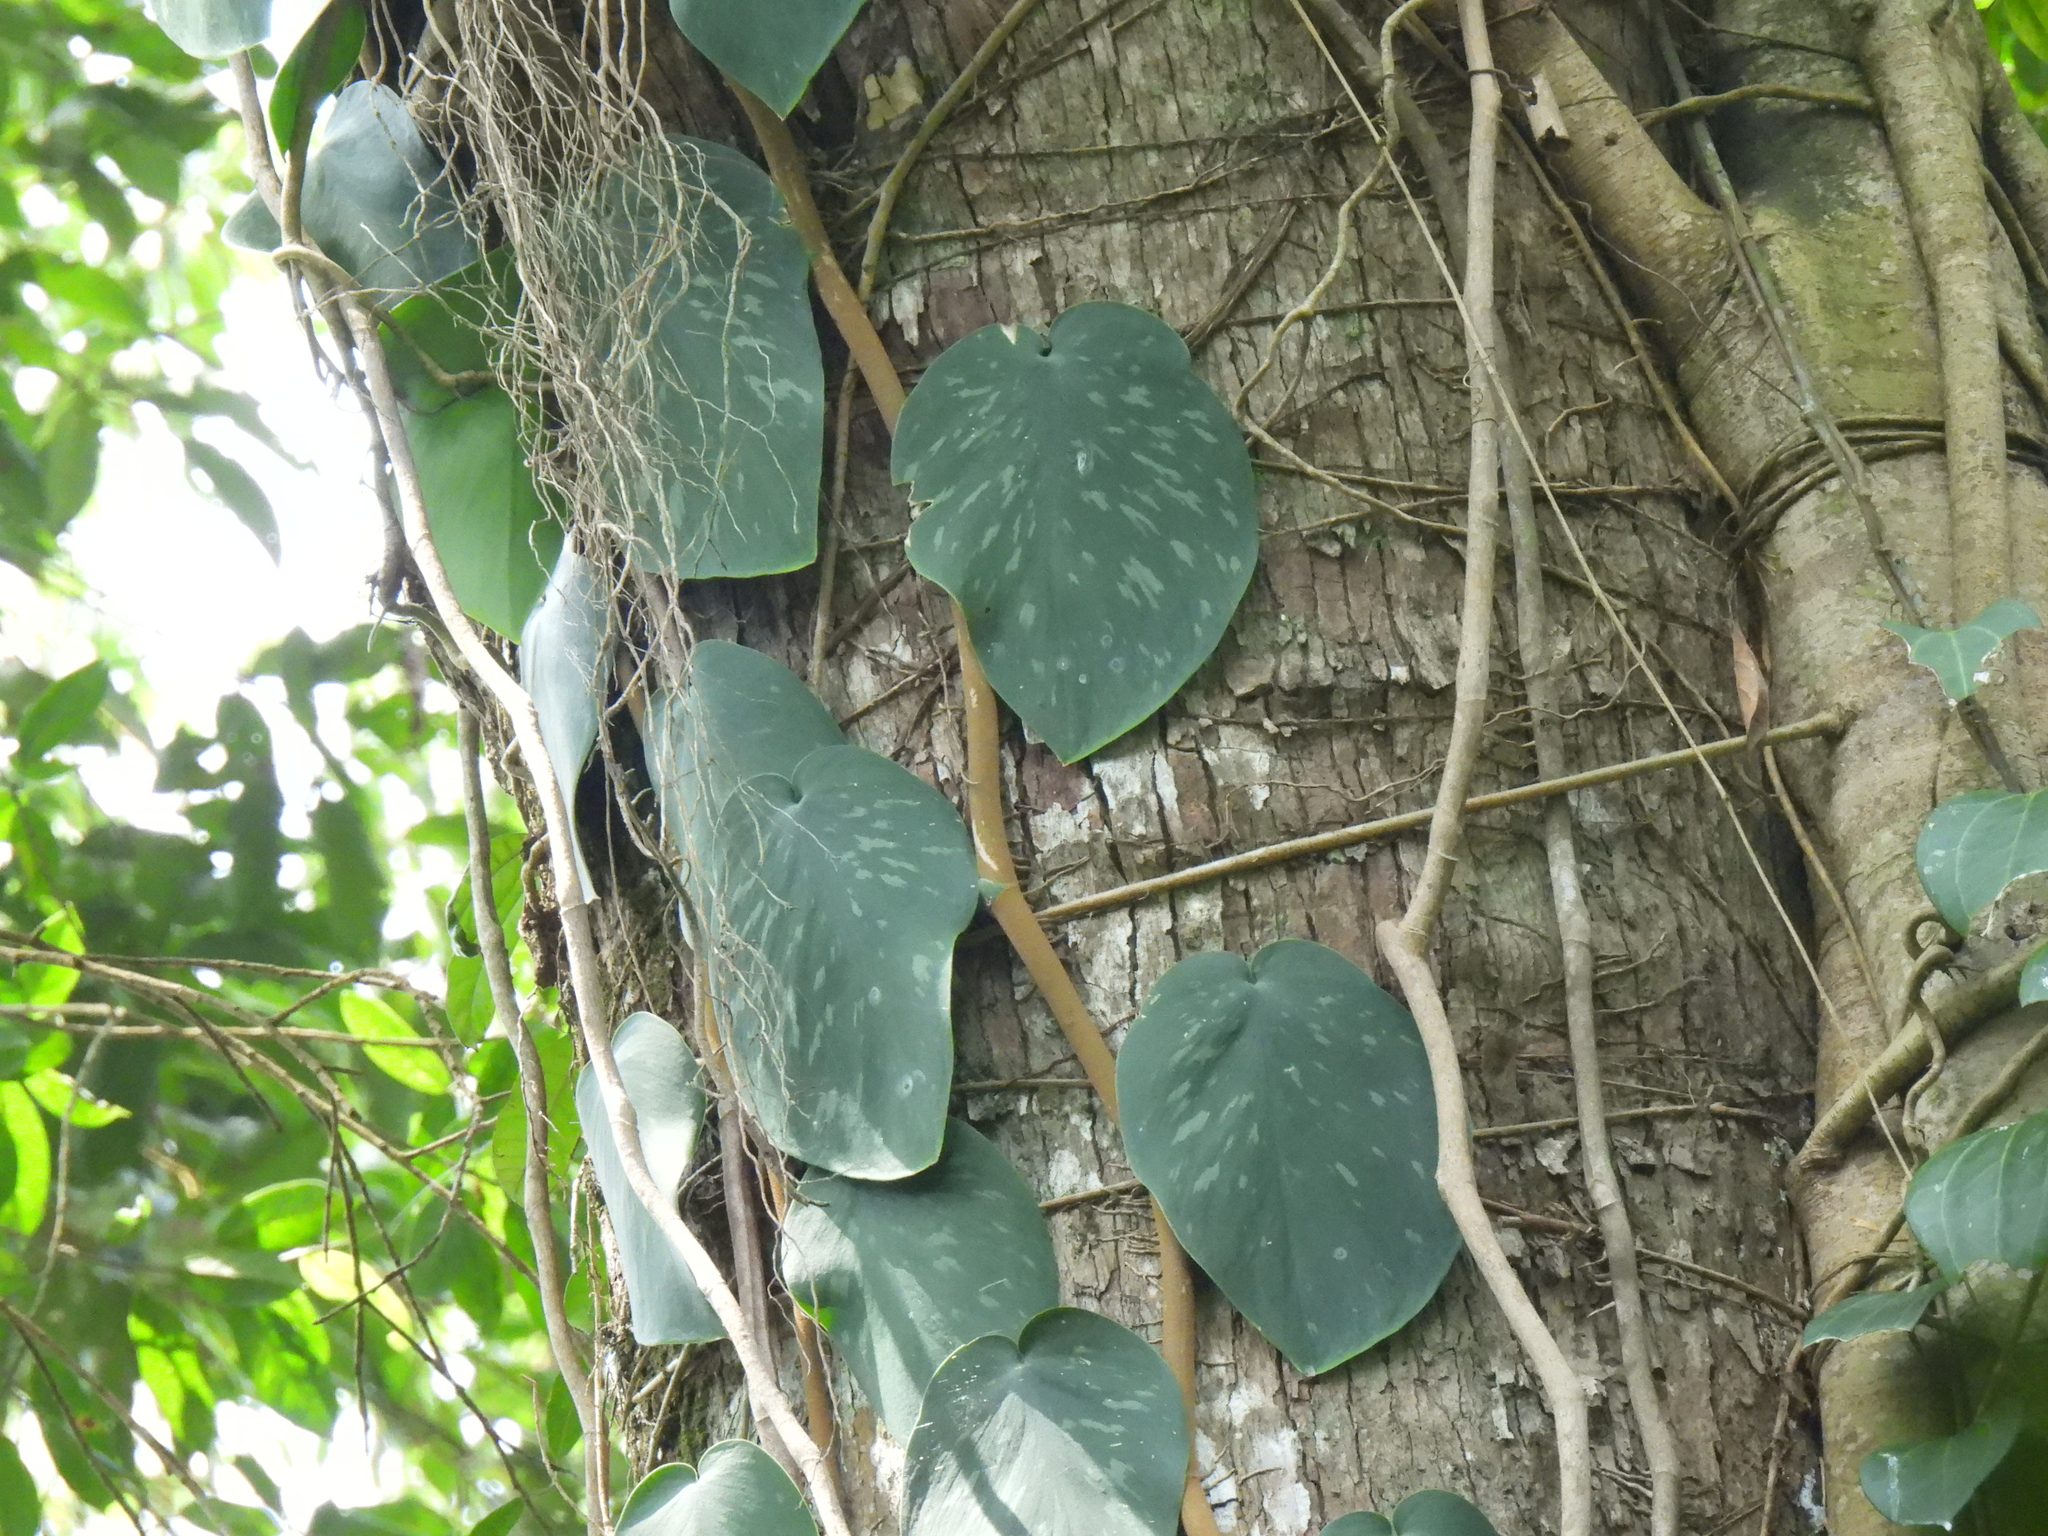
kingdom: Plantae
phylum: Tracheophyta
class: Liliopsida
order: Alismatales
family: Araceae
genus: Scindapsus
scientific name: Scindapsus pictus
